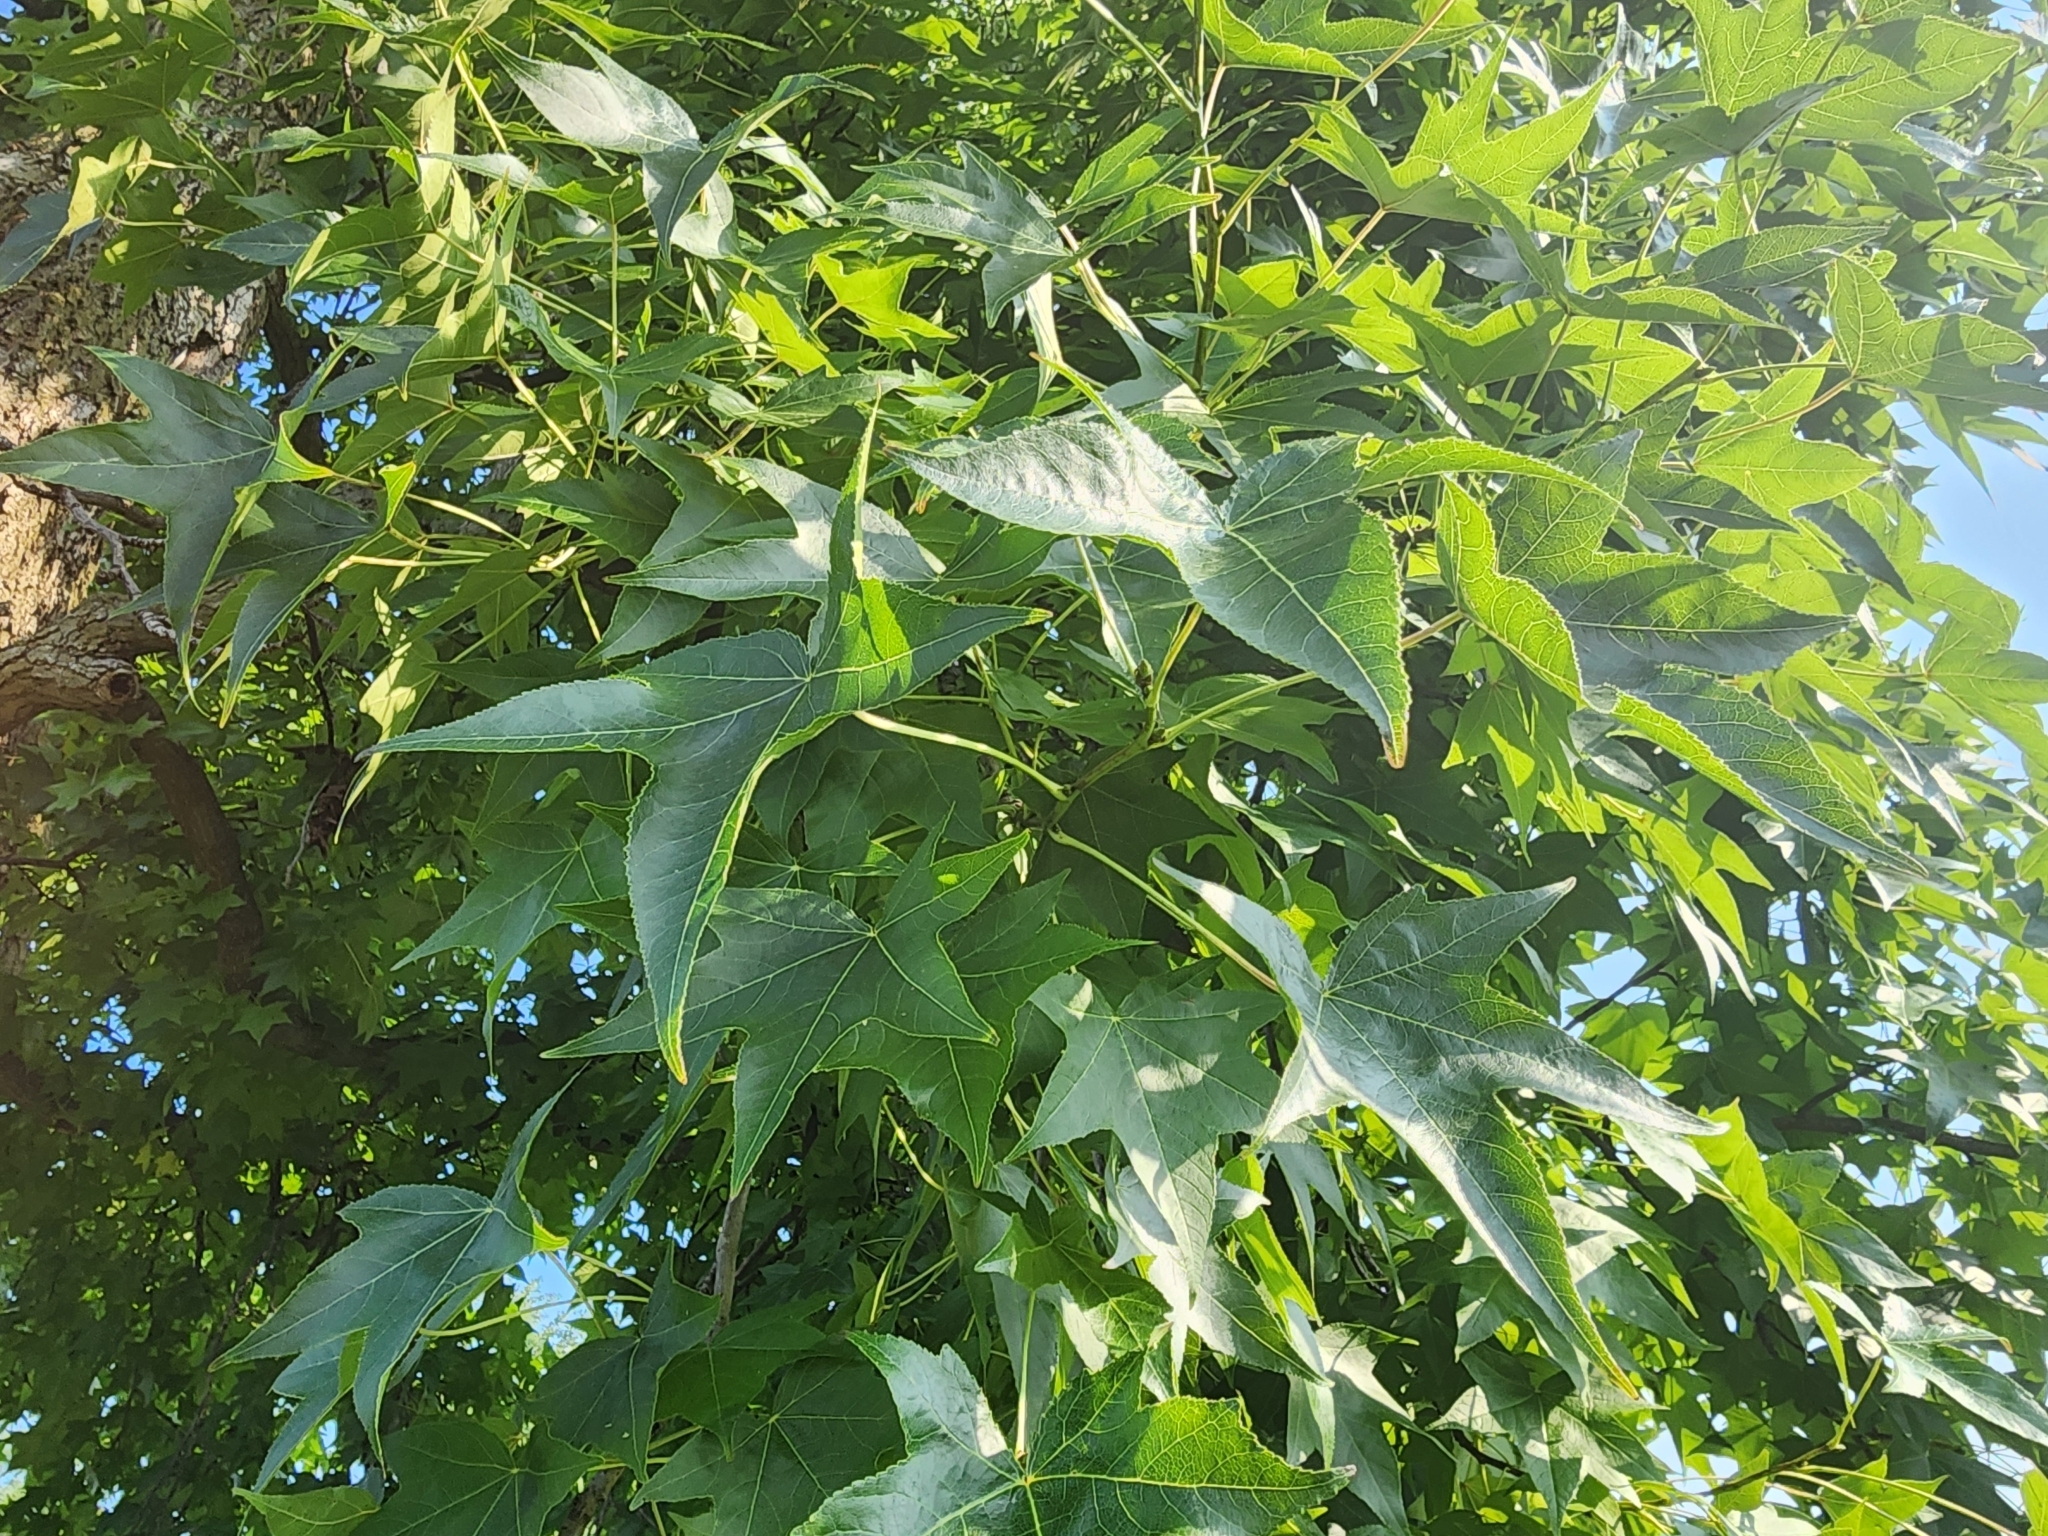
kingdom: Plantae
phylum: Tracheophyta
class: Magnoliopsida
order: Saxifragales
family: Altingiaceae
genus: Liquidambar
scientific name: Liquidambar styraciflua
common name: Sweet gum
